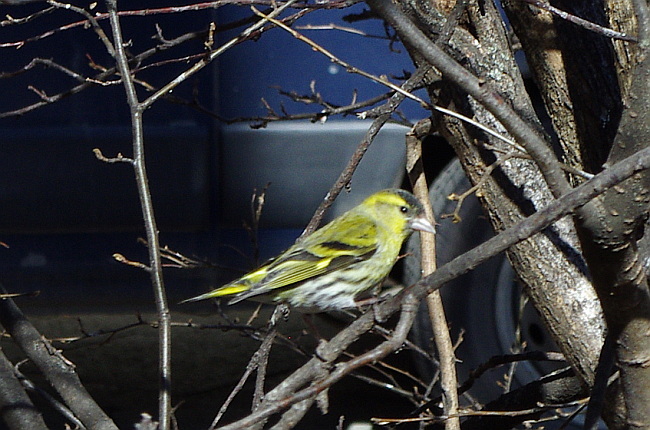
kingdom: Animalia
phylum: Chordata
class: Aves
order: Passeriformes
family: Fringillidae
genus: Spinus
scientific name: Spinus spinus
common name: Eurasian siskin
